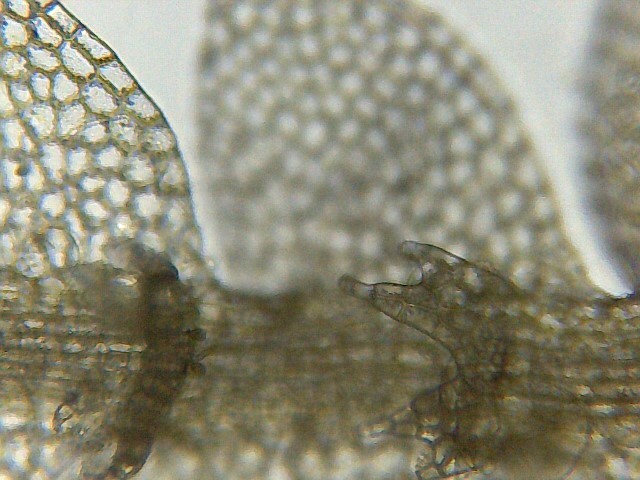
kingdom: Plantae
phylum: Marchantiophyta
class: Jungermanniopsida
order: Jungermanniales
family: Calypogeiaceae
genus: Asperifolia
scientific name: Asperifolia arguta
